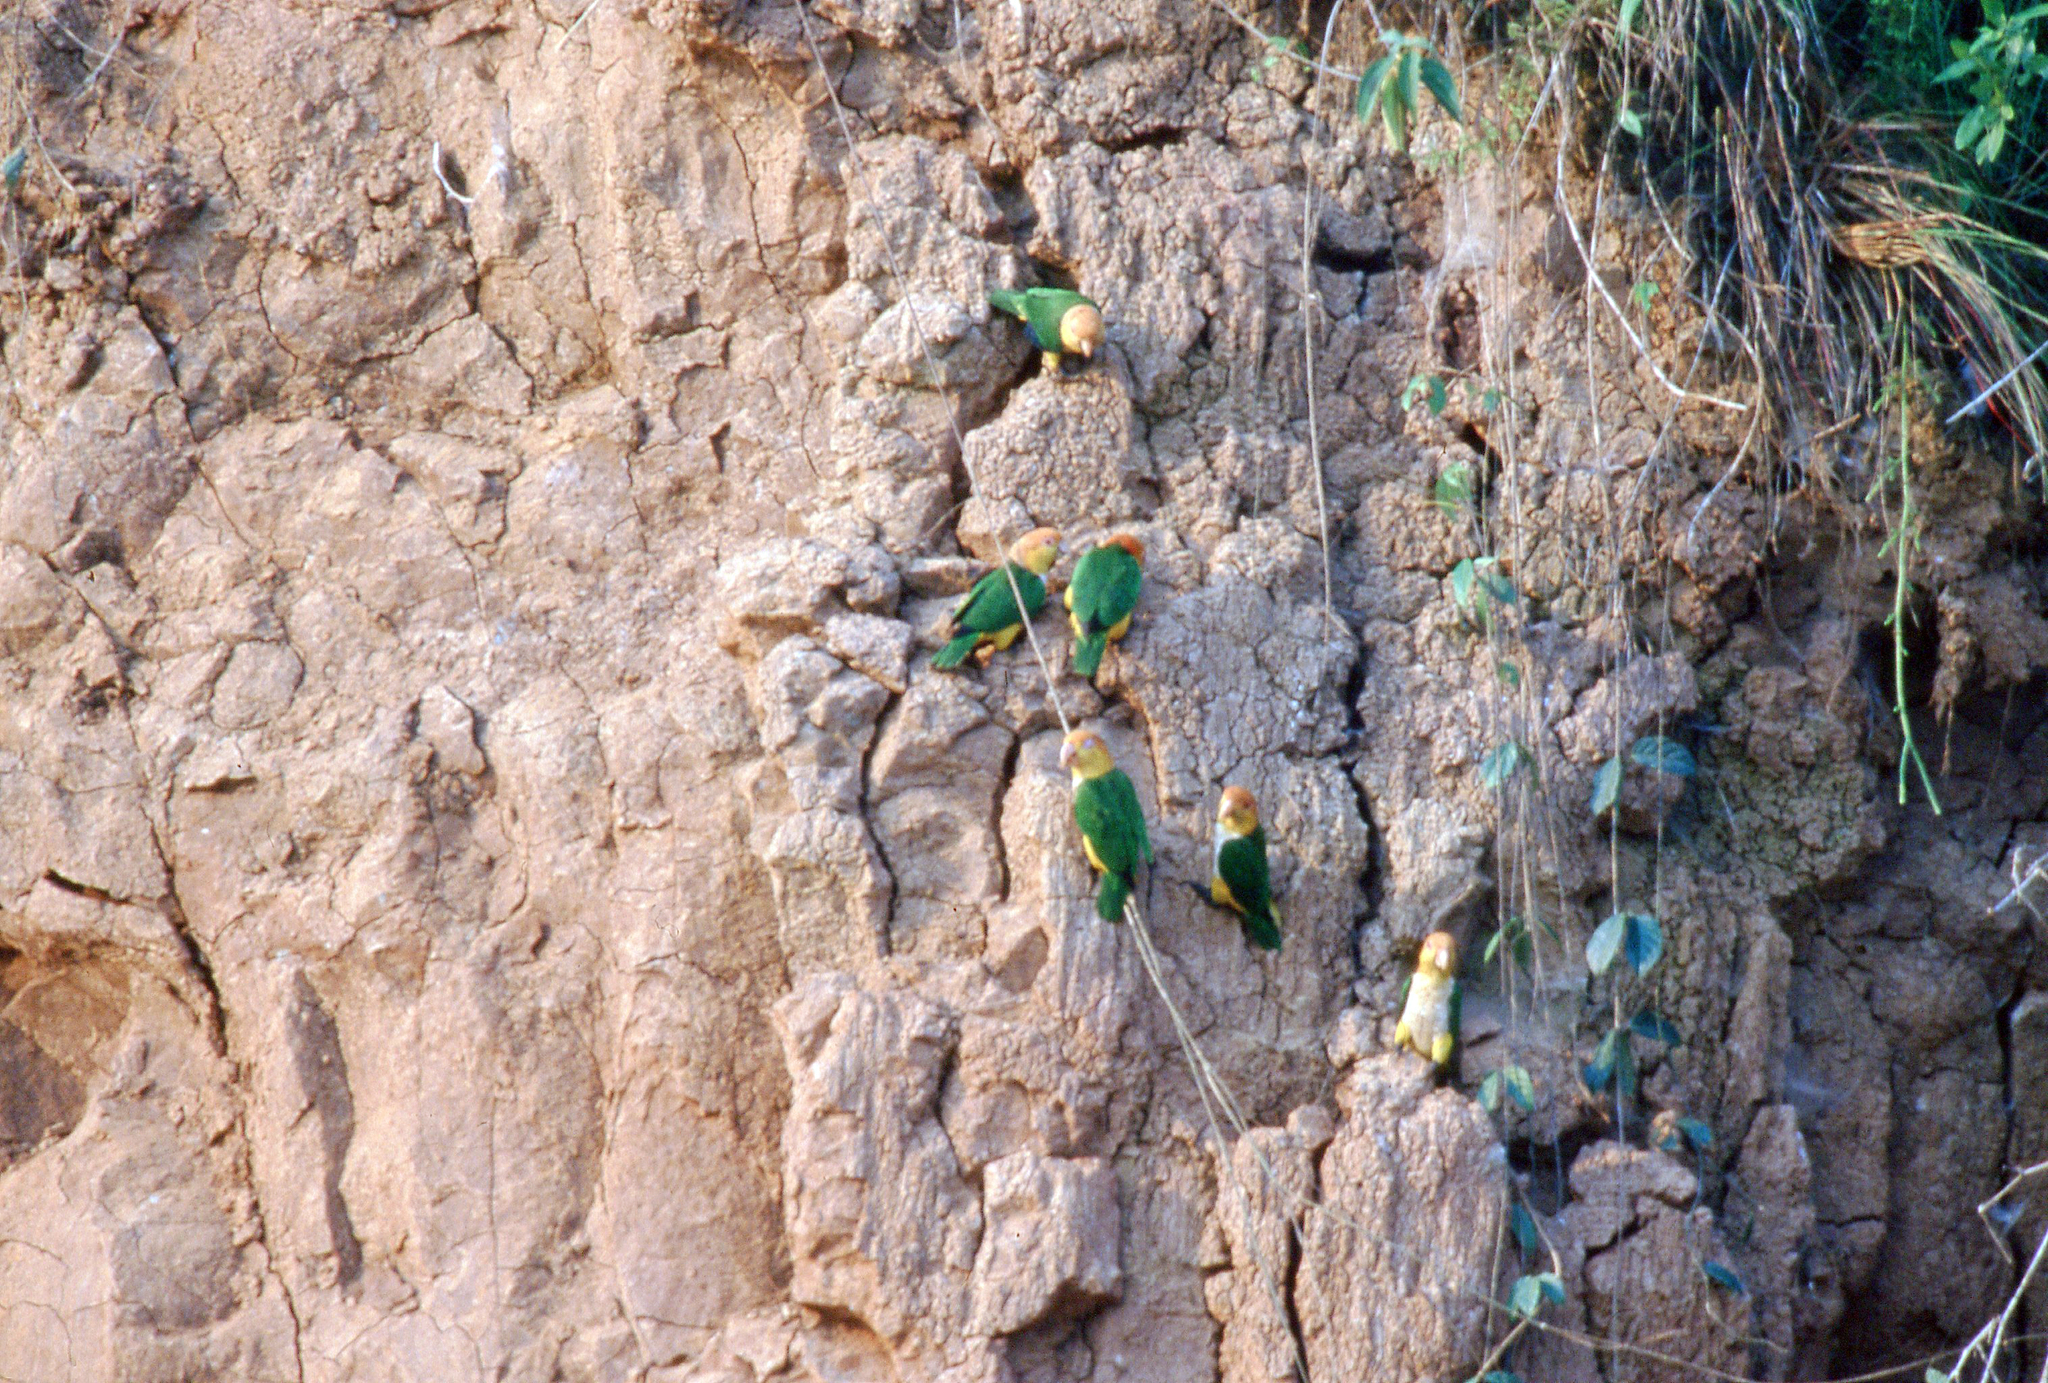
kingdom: Animalia
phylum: Chordata
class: Aves
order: Psittaciformes
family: Psittacidae
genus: Pionites
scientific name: Pionites leucogaster
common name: White-bellied parrot
